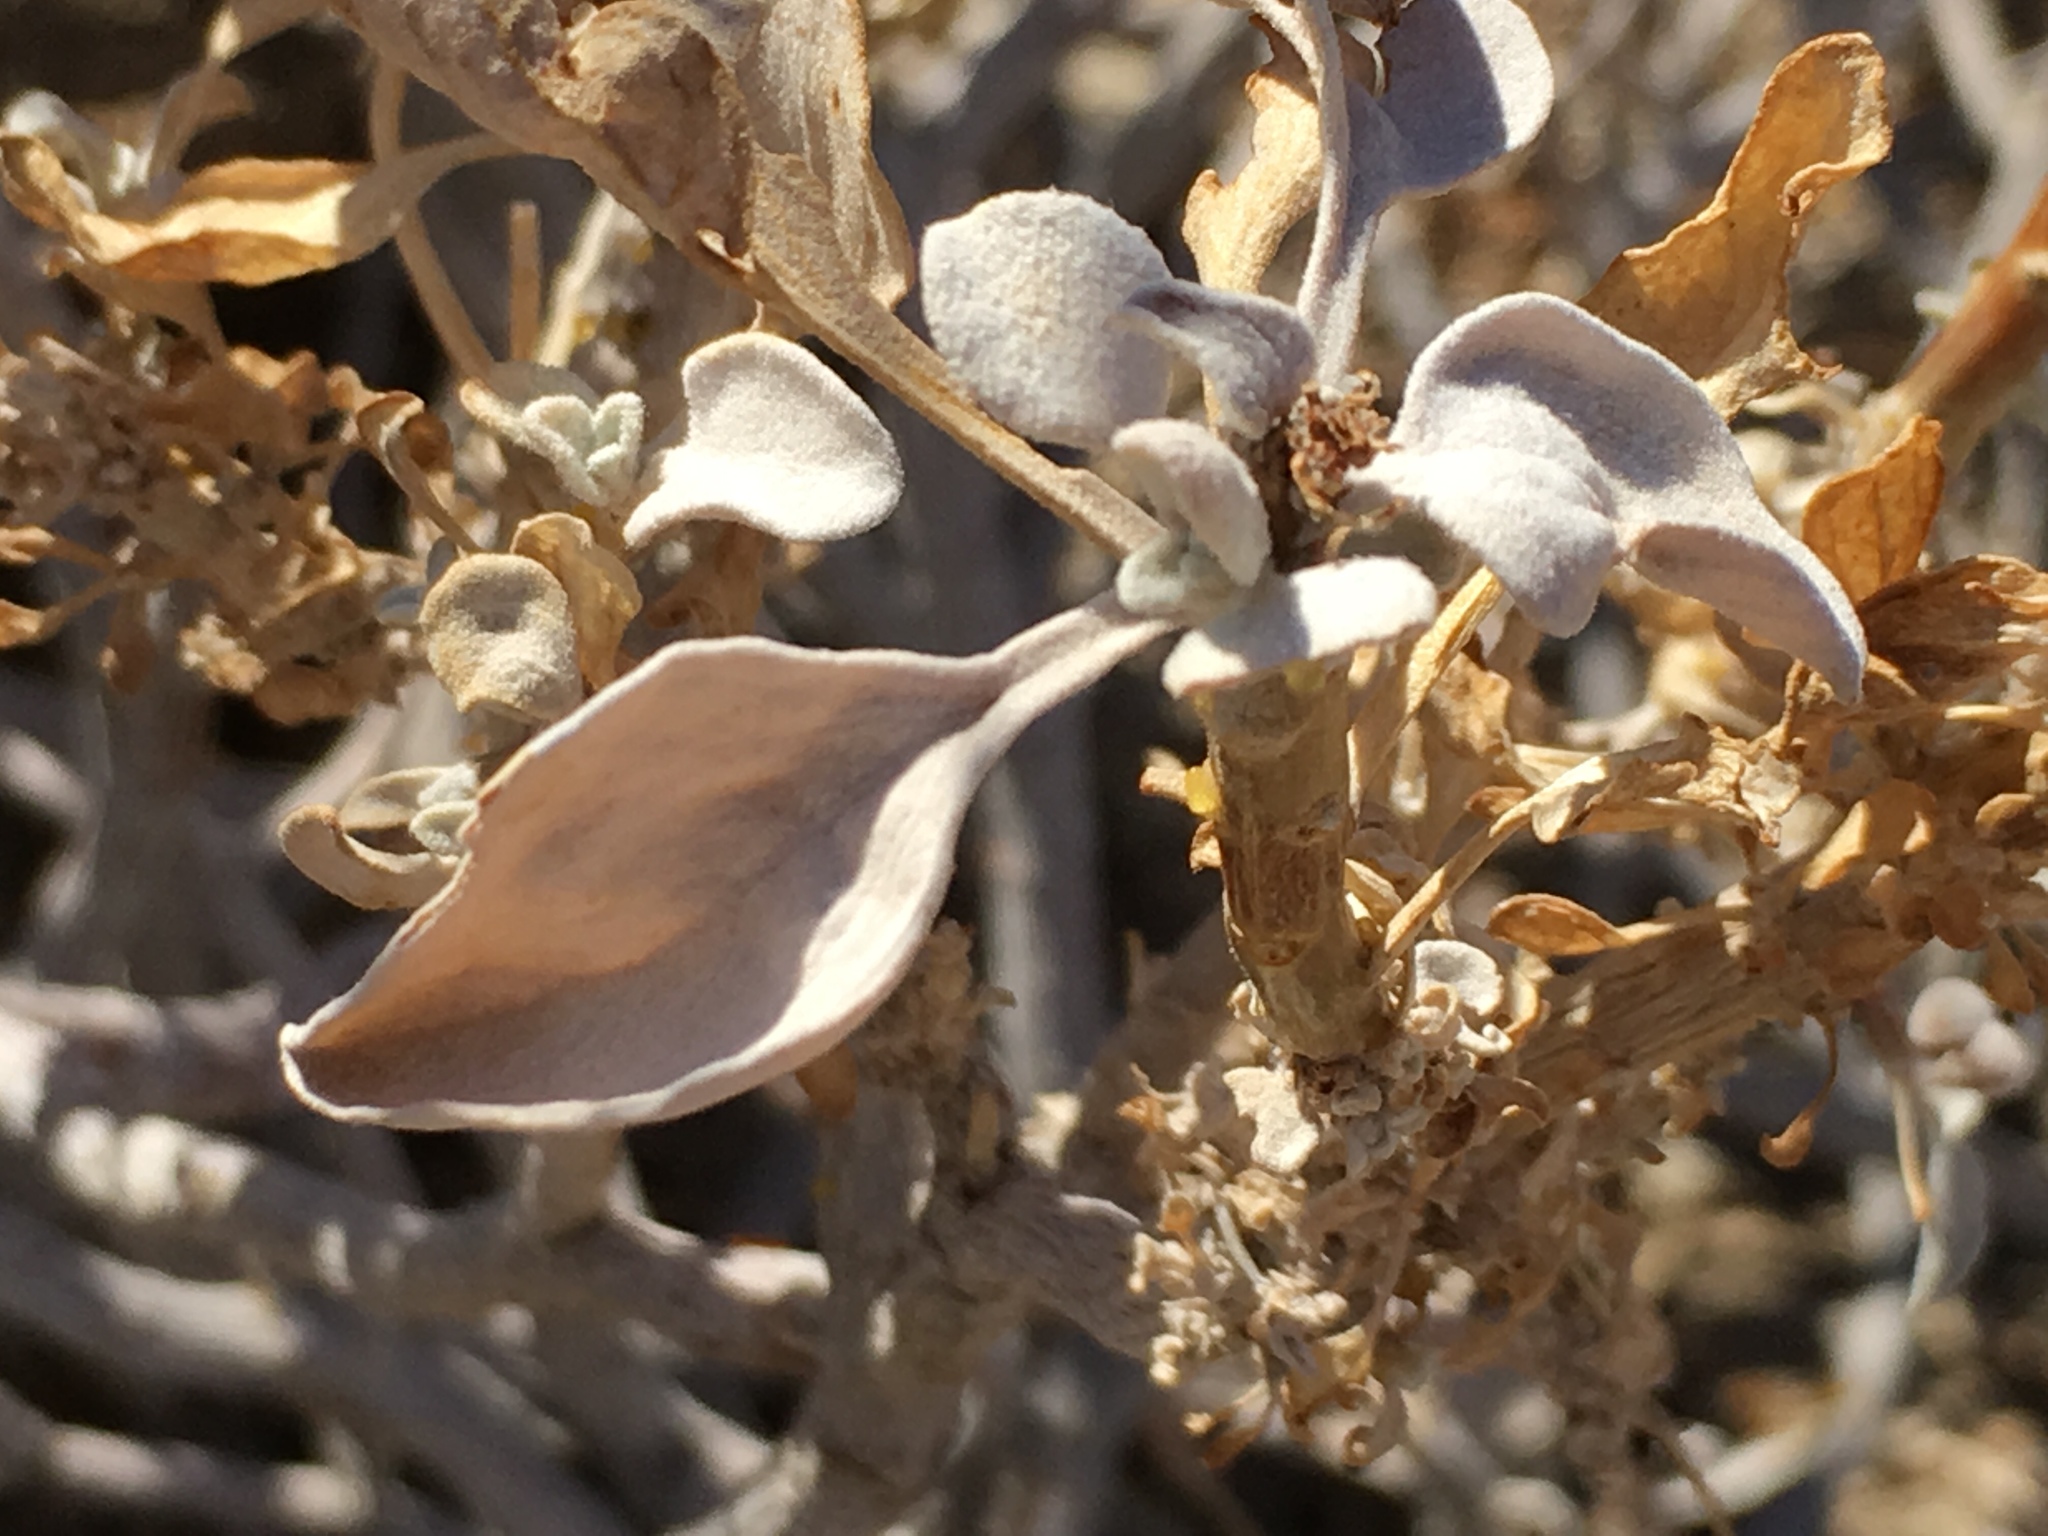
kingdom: Plantae
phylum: Tracheophyta
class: Magnoliopsida
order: Asterales
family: Asteraceae
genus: Encelia
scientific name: Encelia farinosa
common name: Brittlebush
